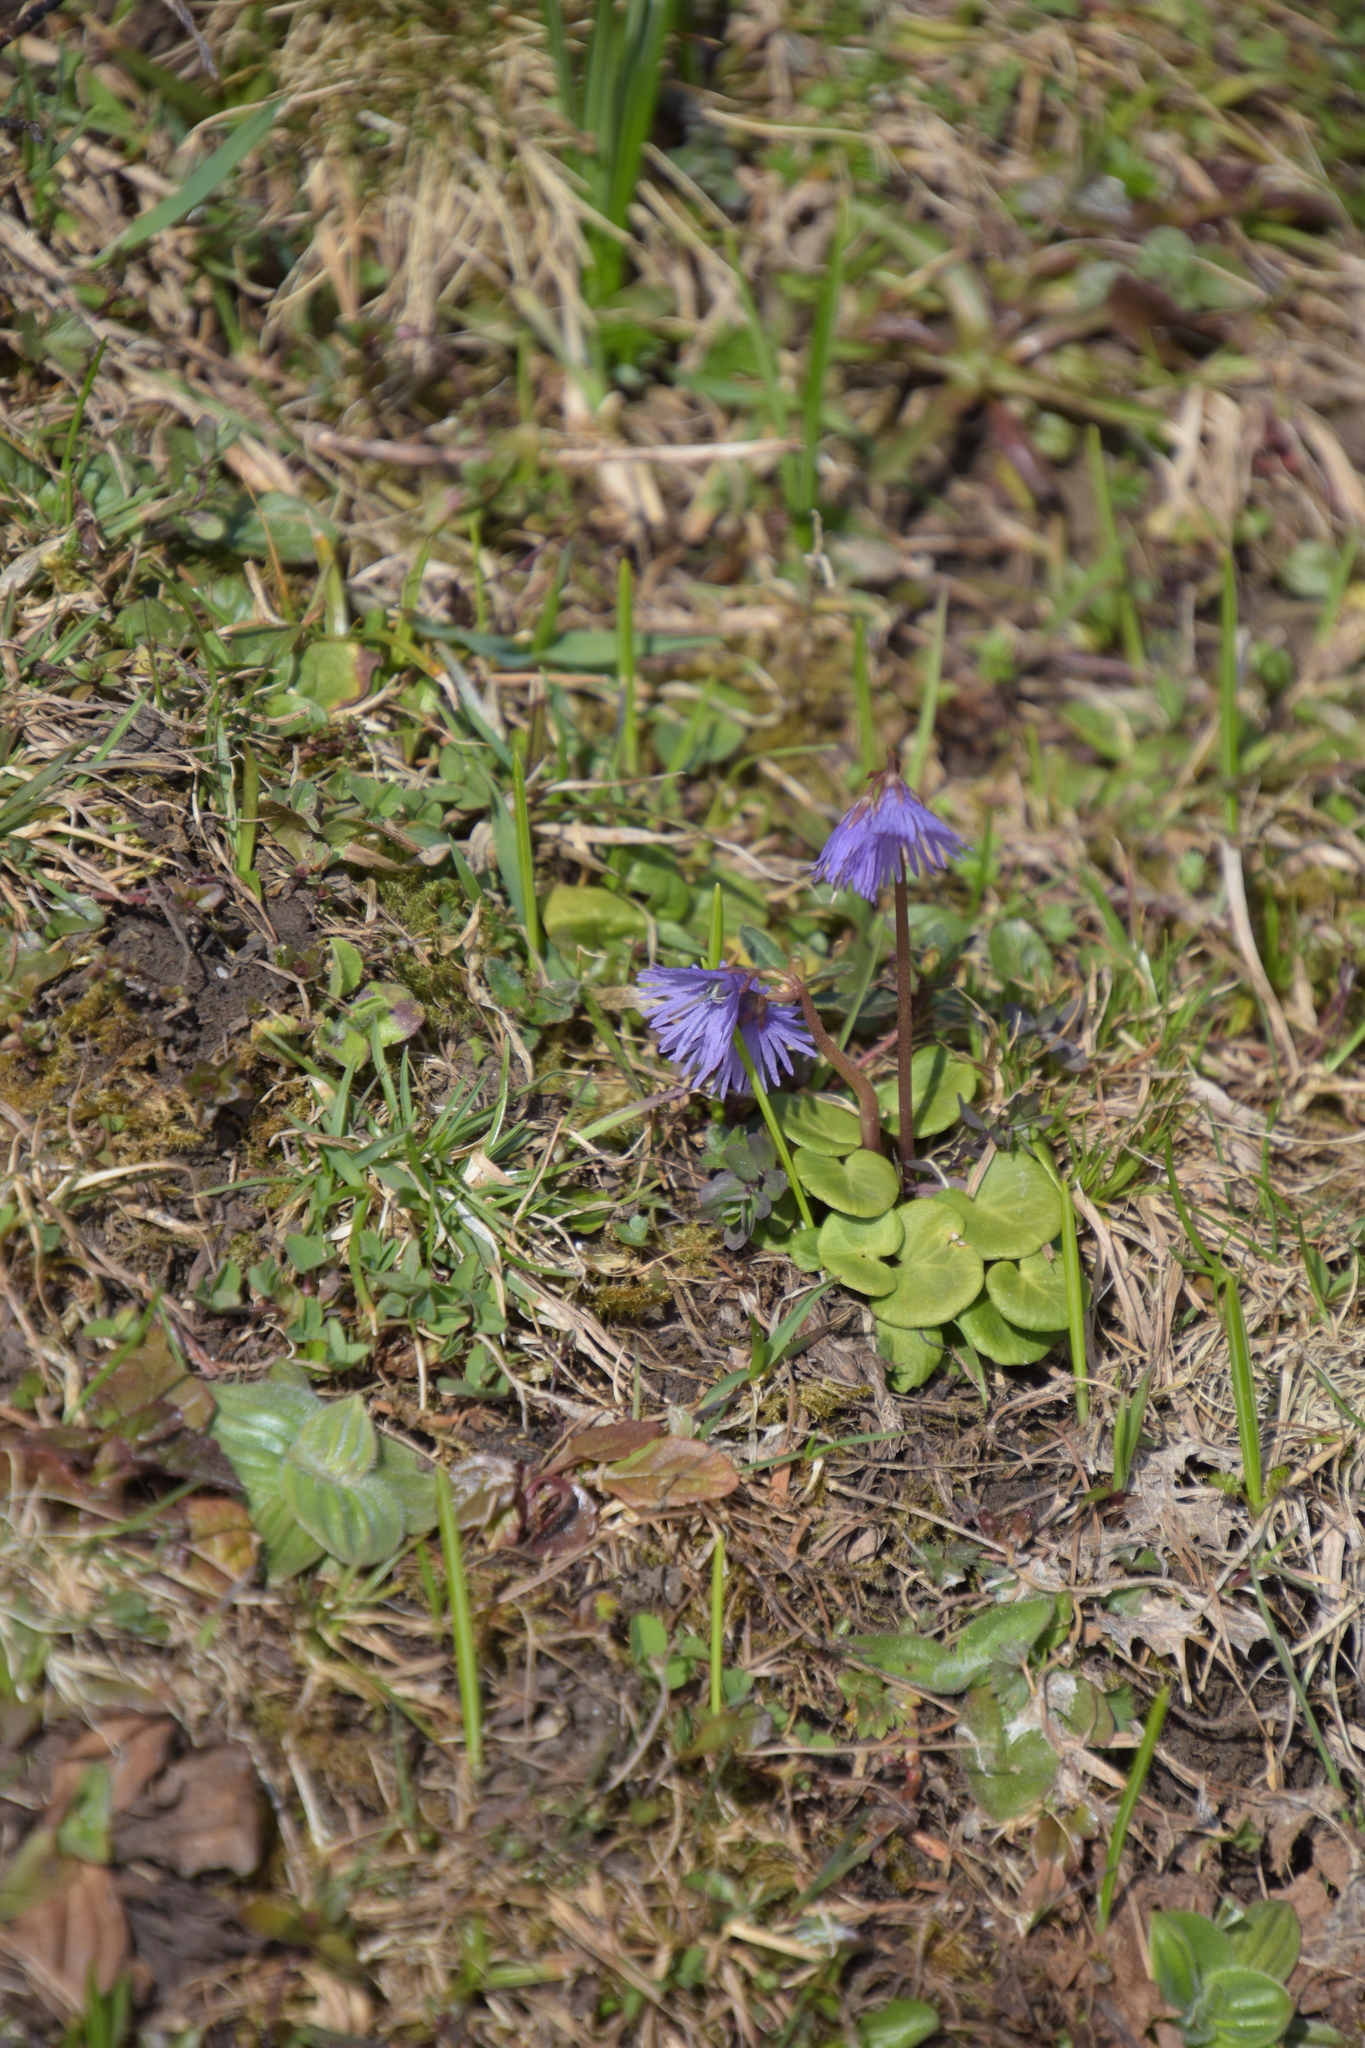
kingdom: Plantae
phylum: Tracheophyta
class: Magnoliopsida
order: Ericales
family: Primulaceae
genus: Soldanella
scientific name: Soldanella alpina
